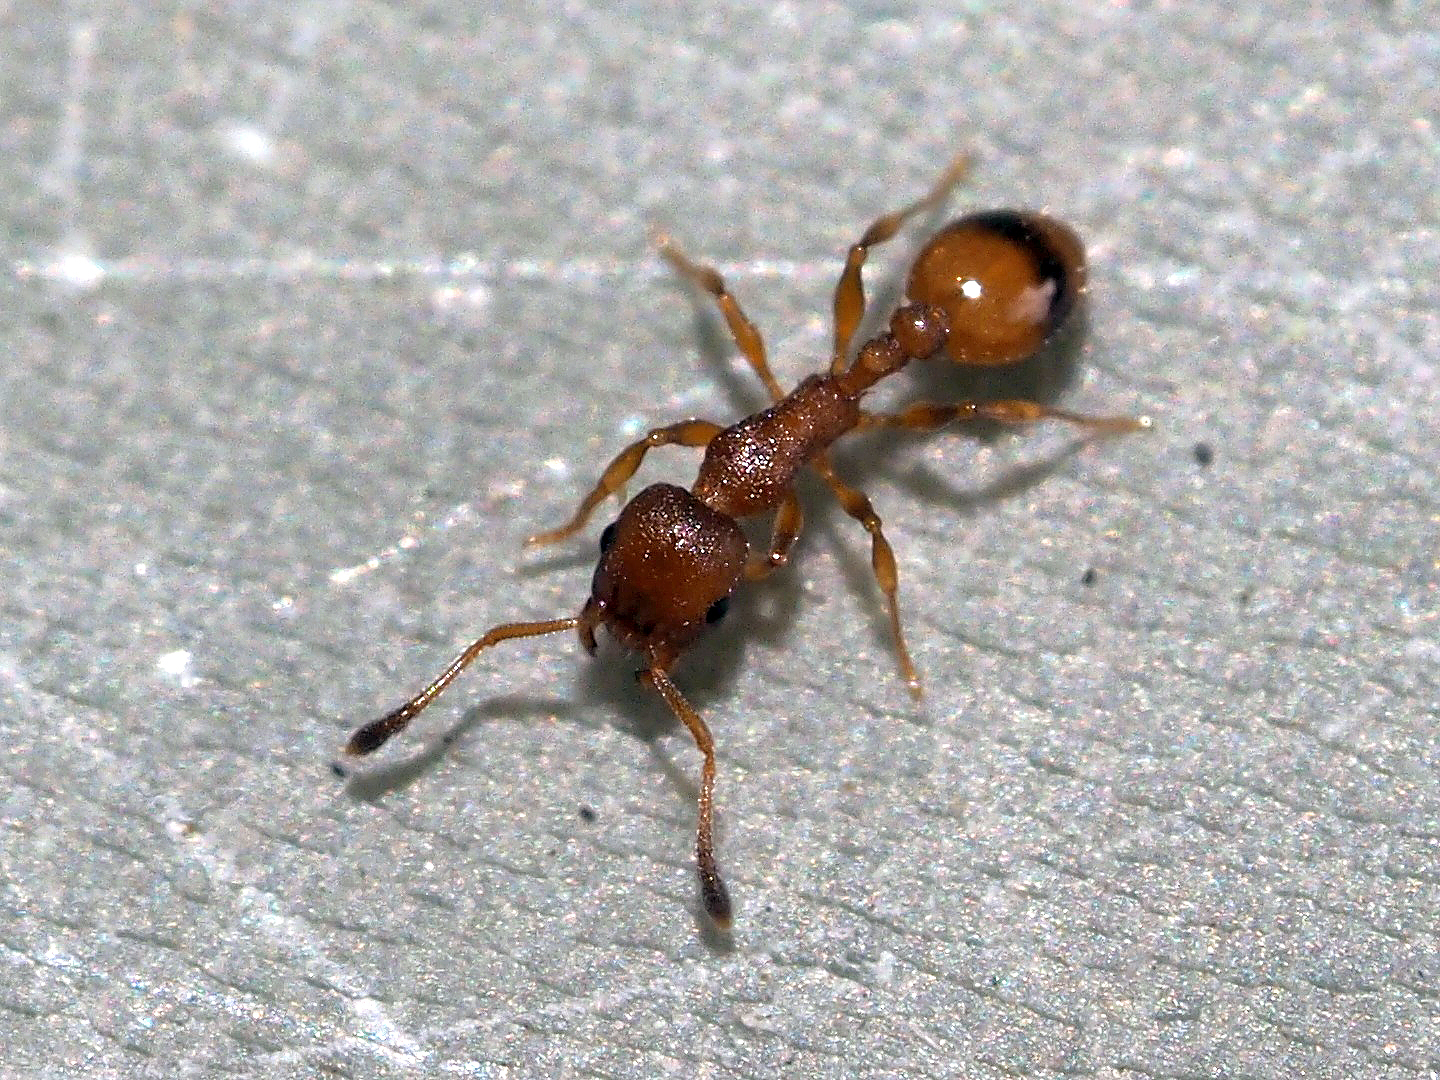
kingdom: Animalia
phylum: Arthropoda
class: Insecta
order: Hymenoptera
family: Formicidae
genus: Leptothorax
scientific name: Leptothorax unifasciatus
